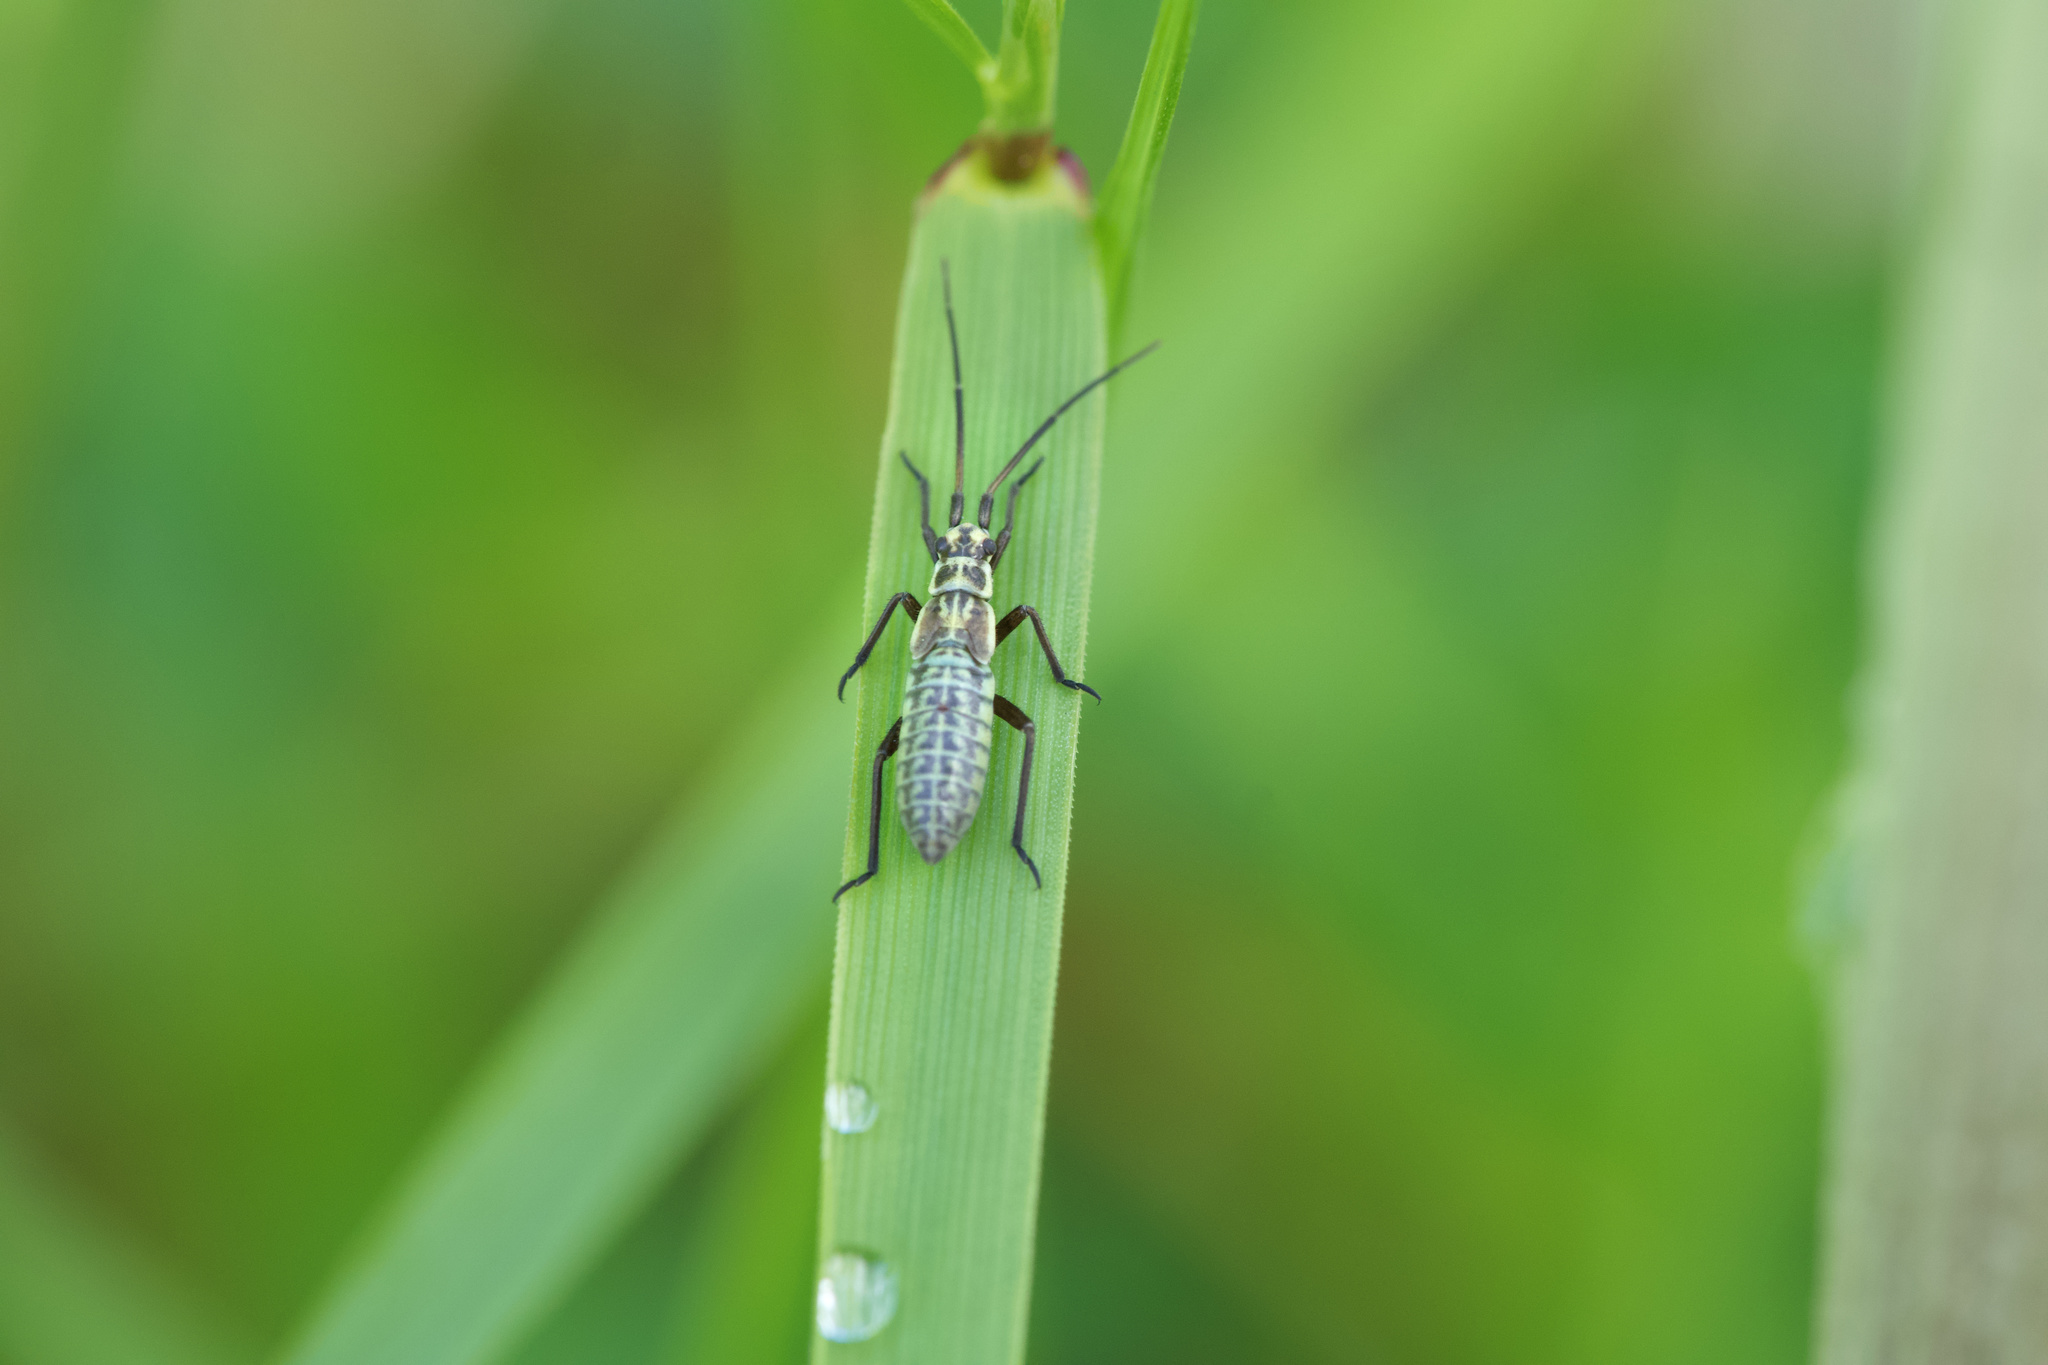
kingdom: Animalia
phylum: Arthropoda
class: Insecta
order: Hemiptera
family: Miridae
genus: Leptopterna
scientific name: Leptopterna dolabrata
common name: Meadow plant bug
